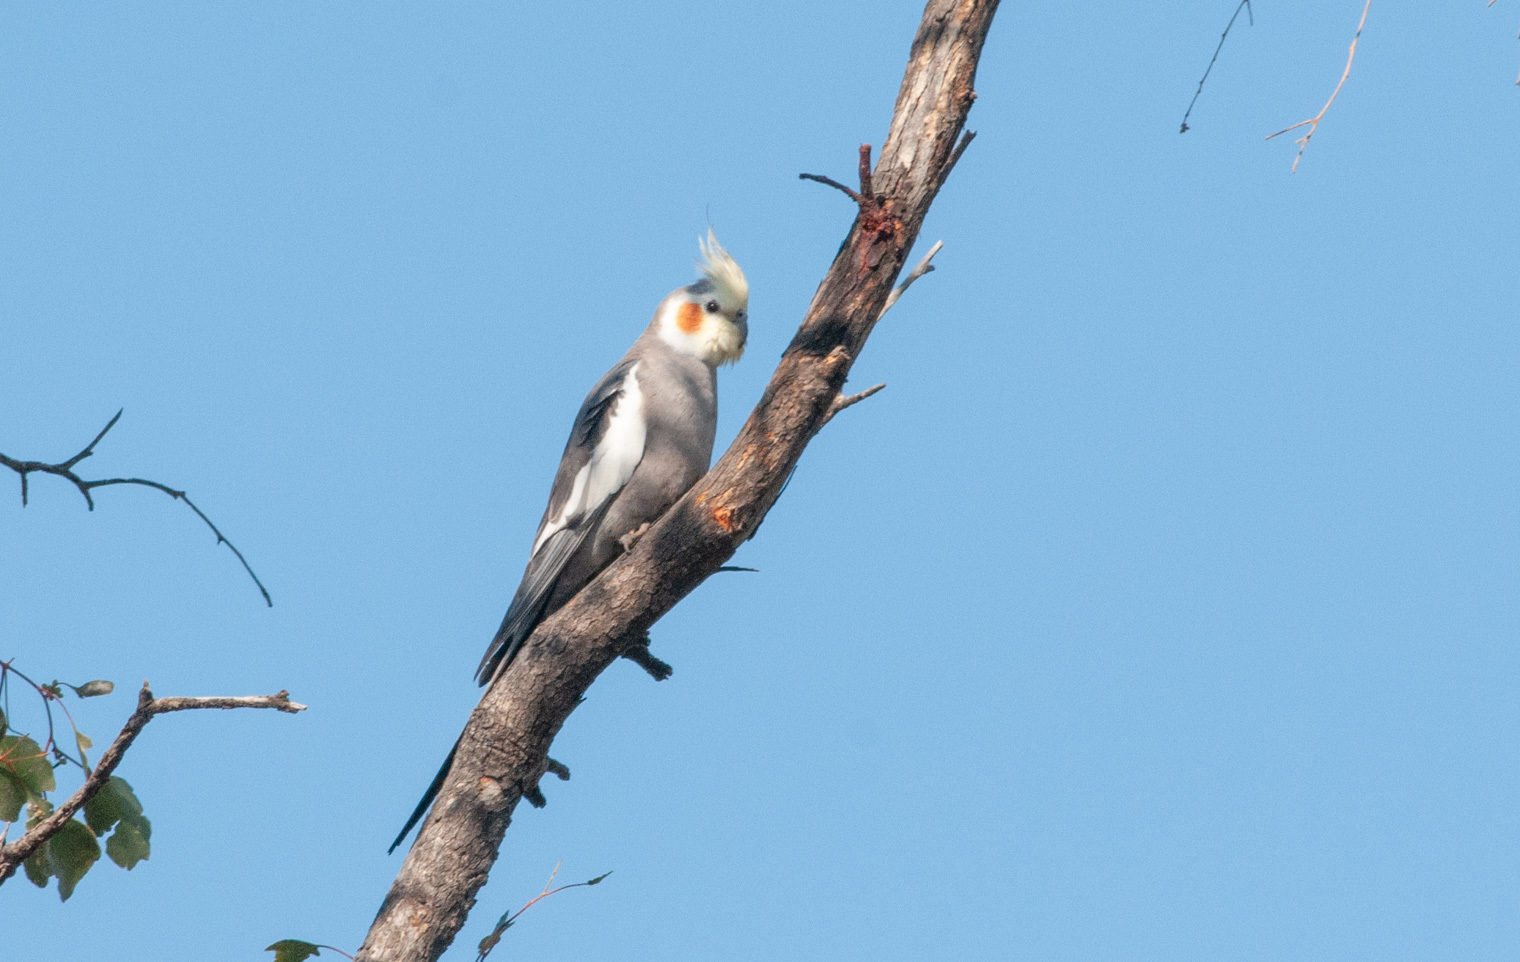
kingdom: Animalia
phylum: Chordata
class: Aves
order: Psittaciformes
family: Psittacidae
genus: Nymphicus
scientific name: Nymphicus hollandicus
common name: Cockatiel
